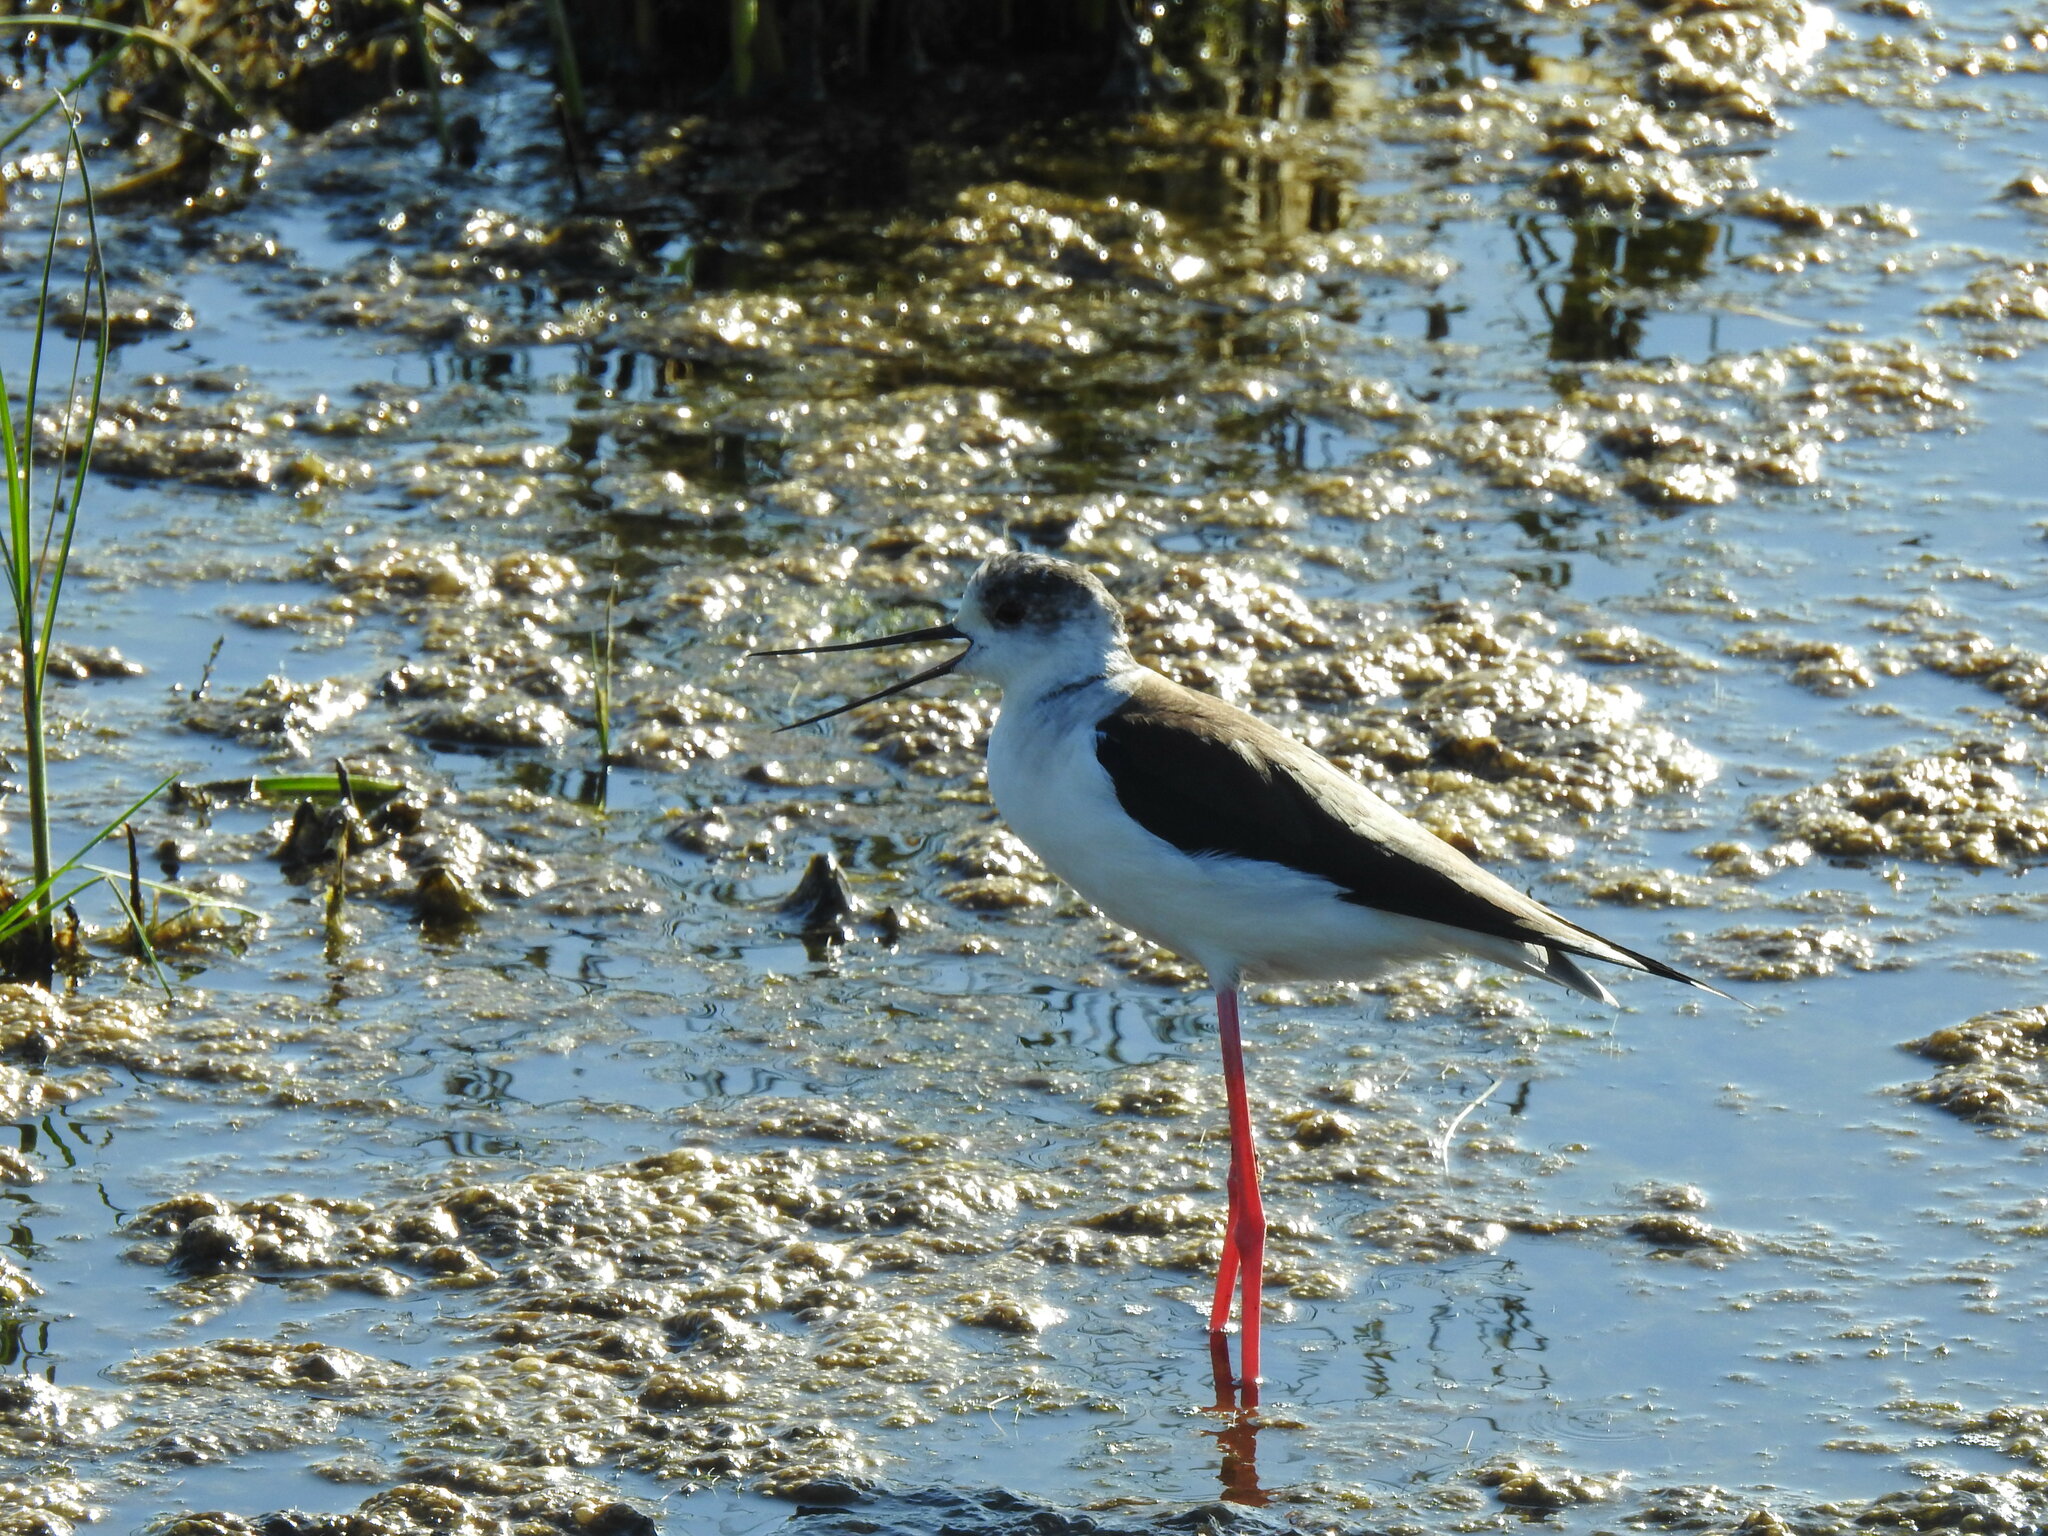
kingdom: Animalia
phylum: Chordata
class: Aves
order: Charadriiformes
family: Recurvirostridae
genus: Himantopus
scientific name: Himantopus himantopus
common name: Black-winged stilt
